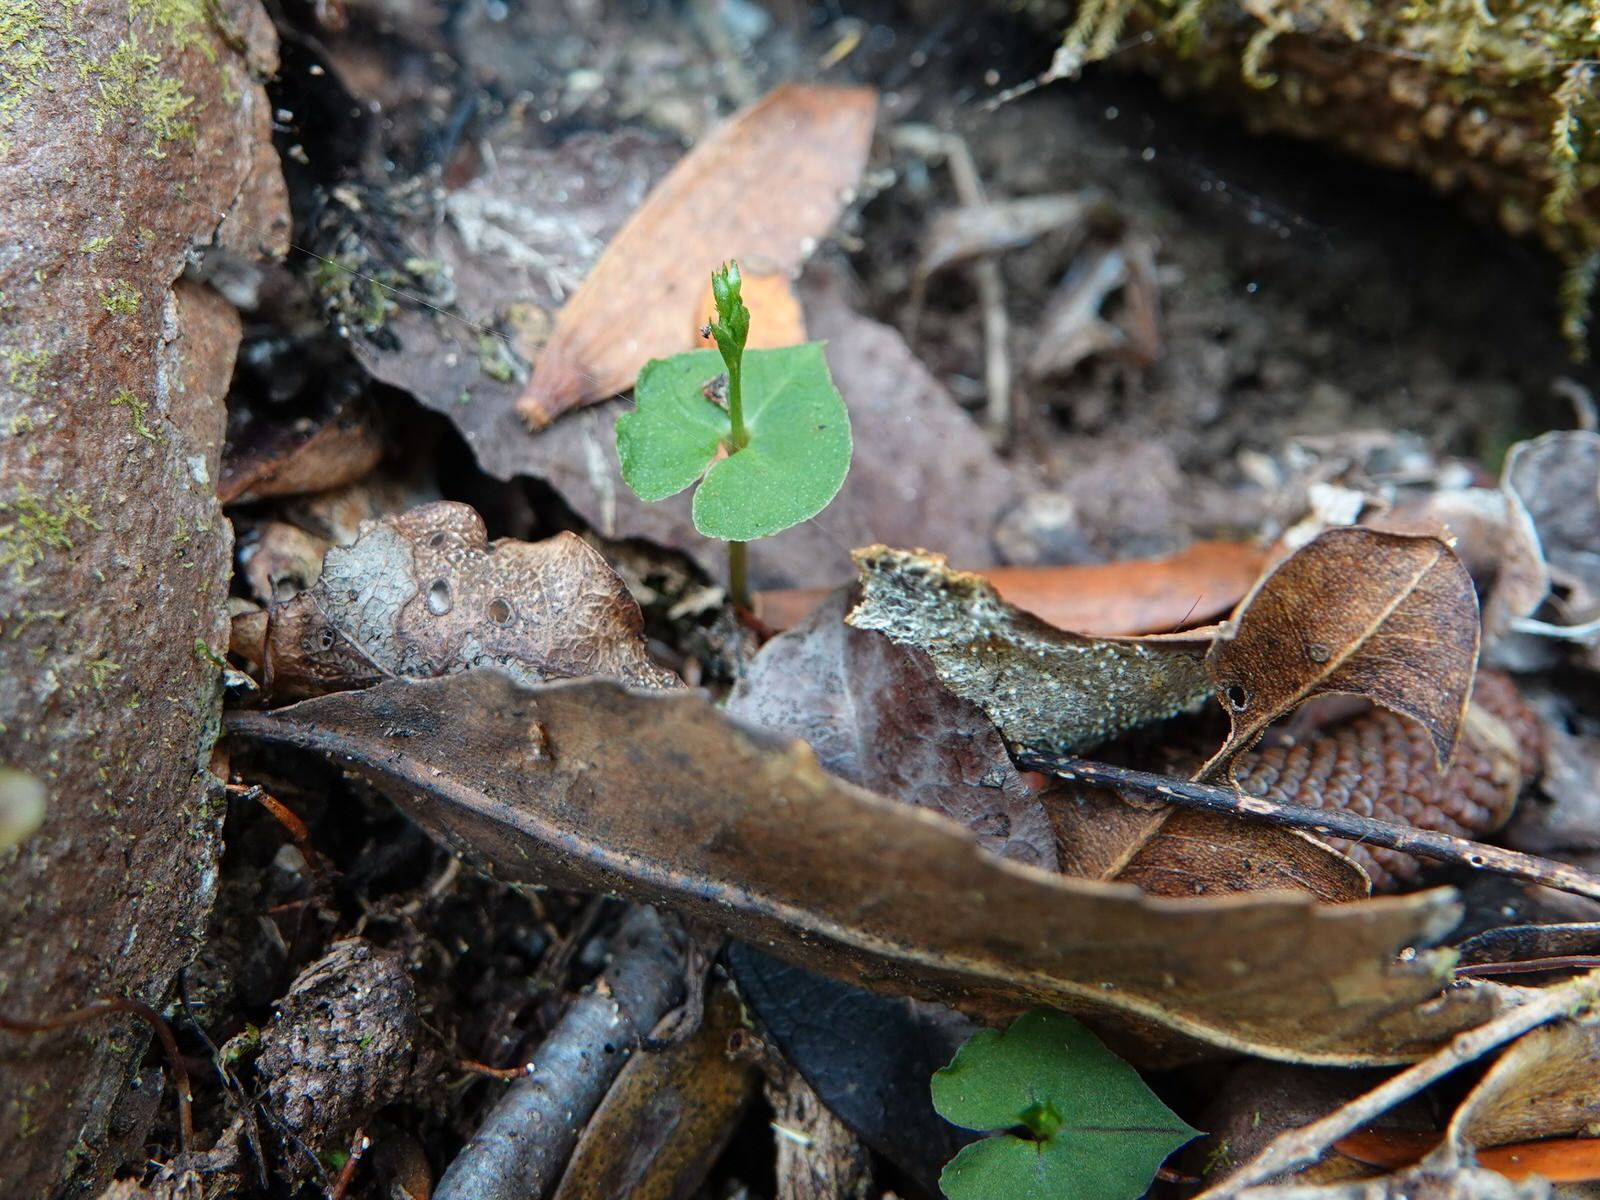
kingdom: Plantae
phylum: Tracheophyta
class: Liliopsida
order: Asparagales
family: Orchidaceae
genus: Acianthus
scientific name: Acianthus sinclairii
